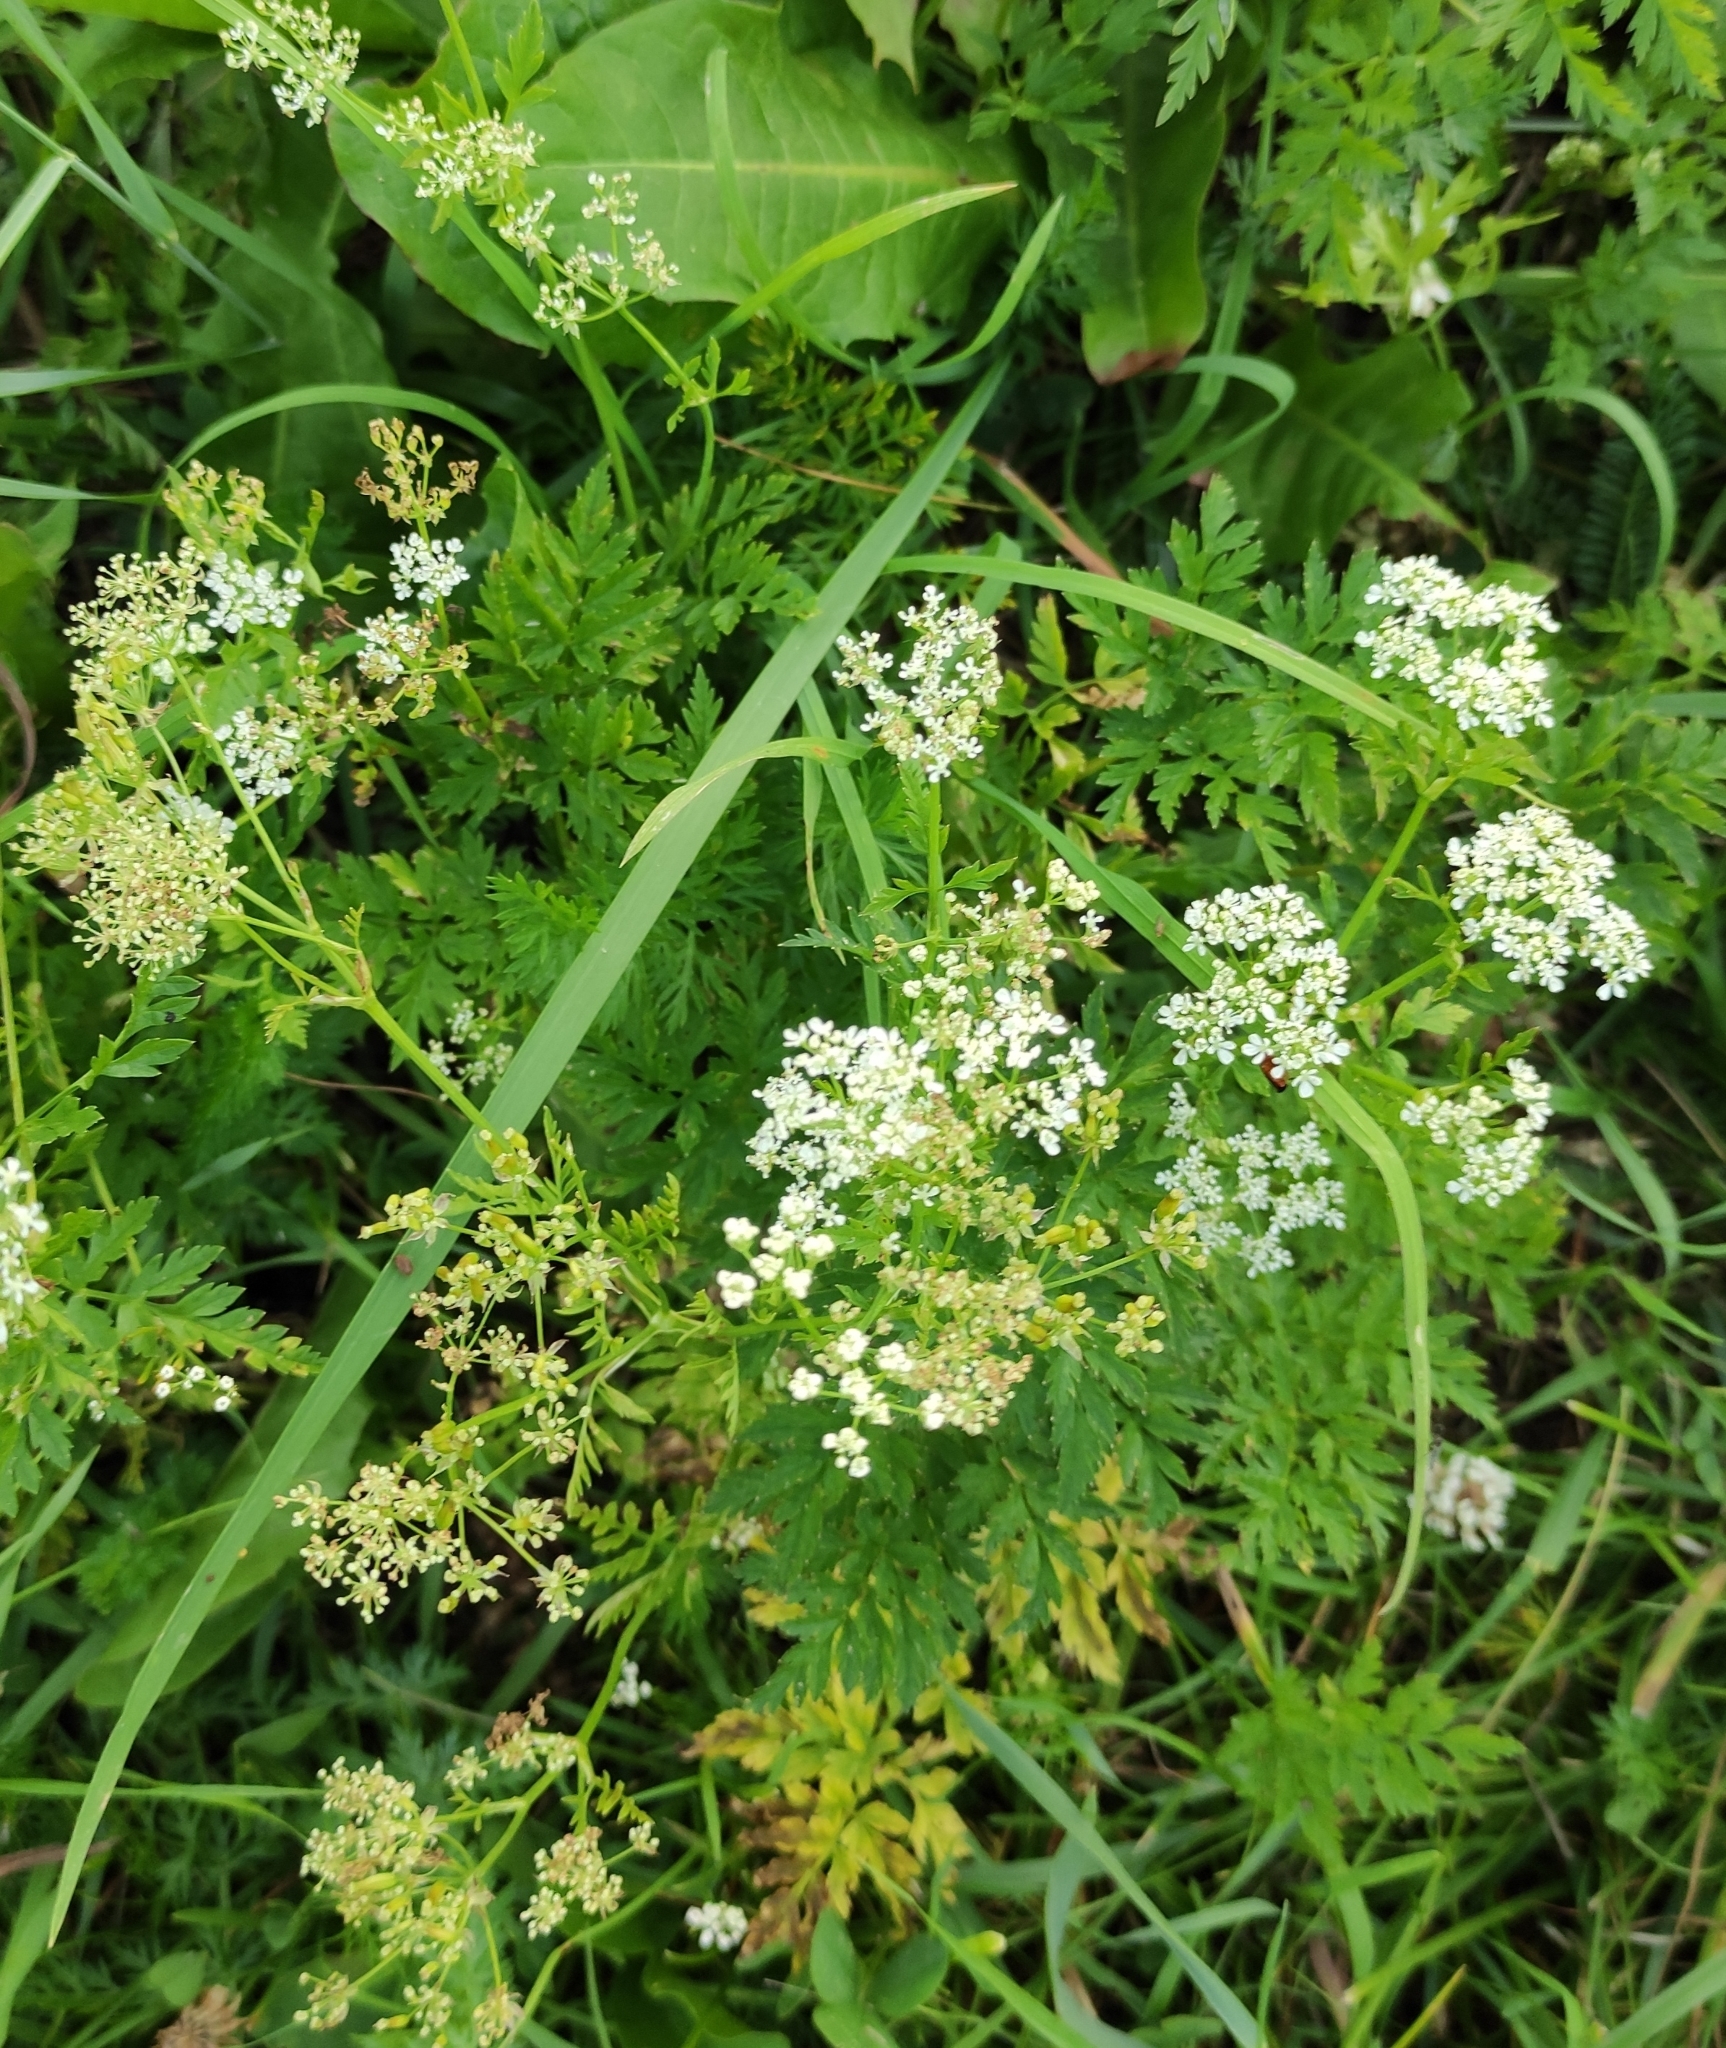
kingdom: Plantae
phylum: Tracheophyta
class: Magnoliopsida
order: Apiales
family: Apiaceae
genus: Anthriscus
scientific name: Anthriscus sylvestris
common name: Cow parsley
